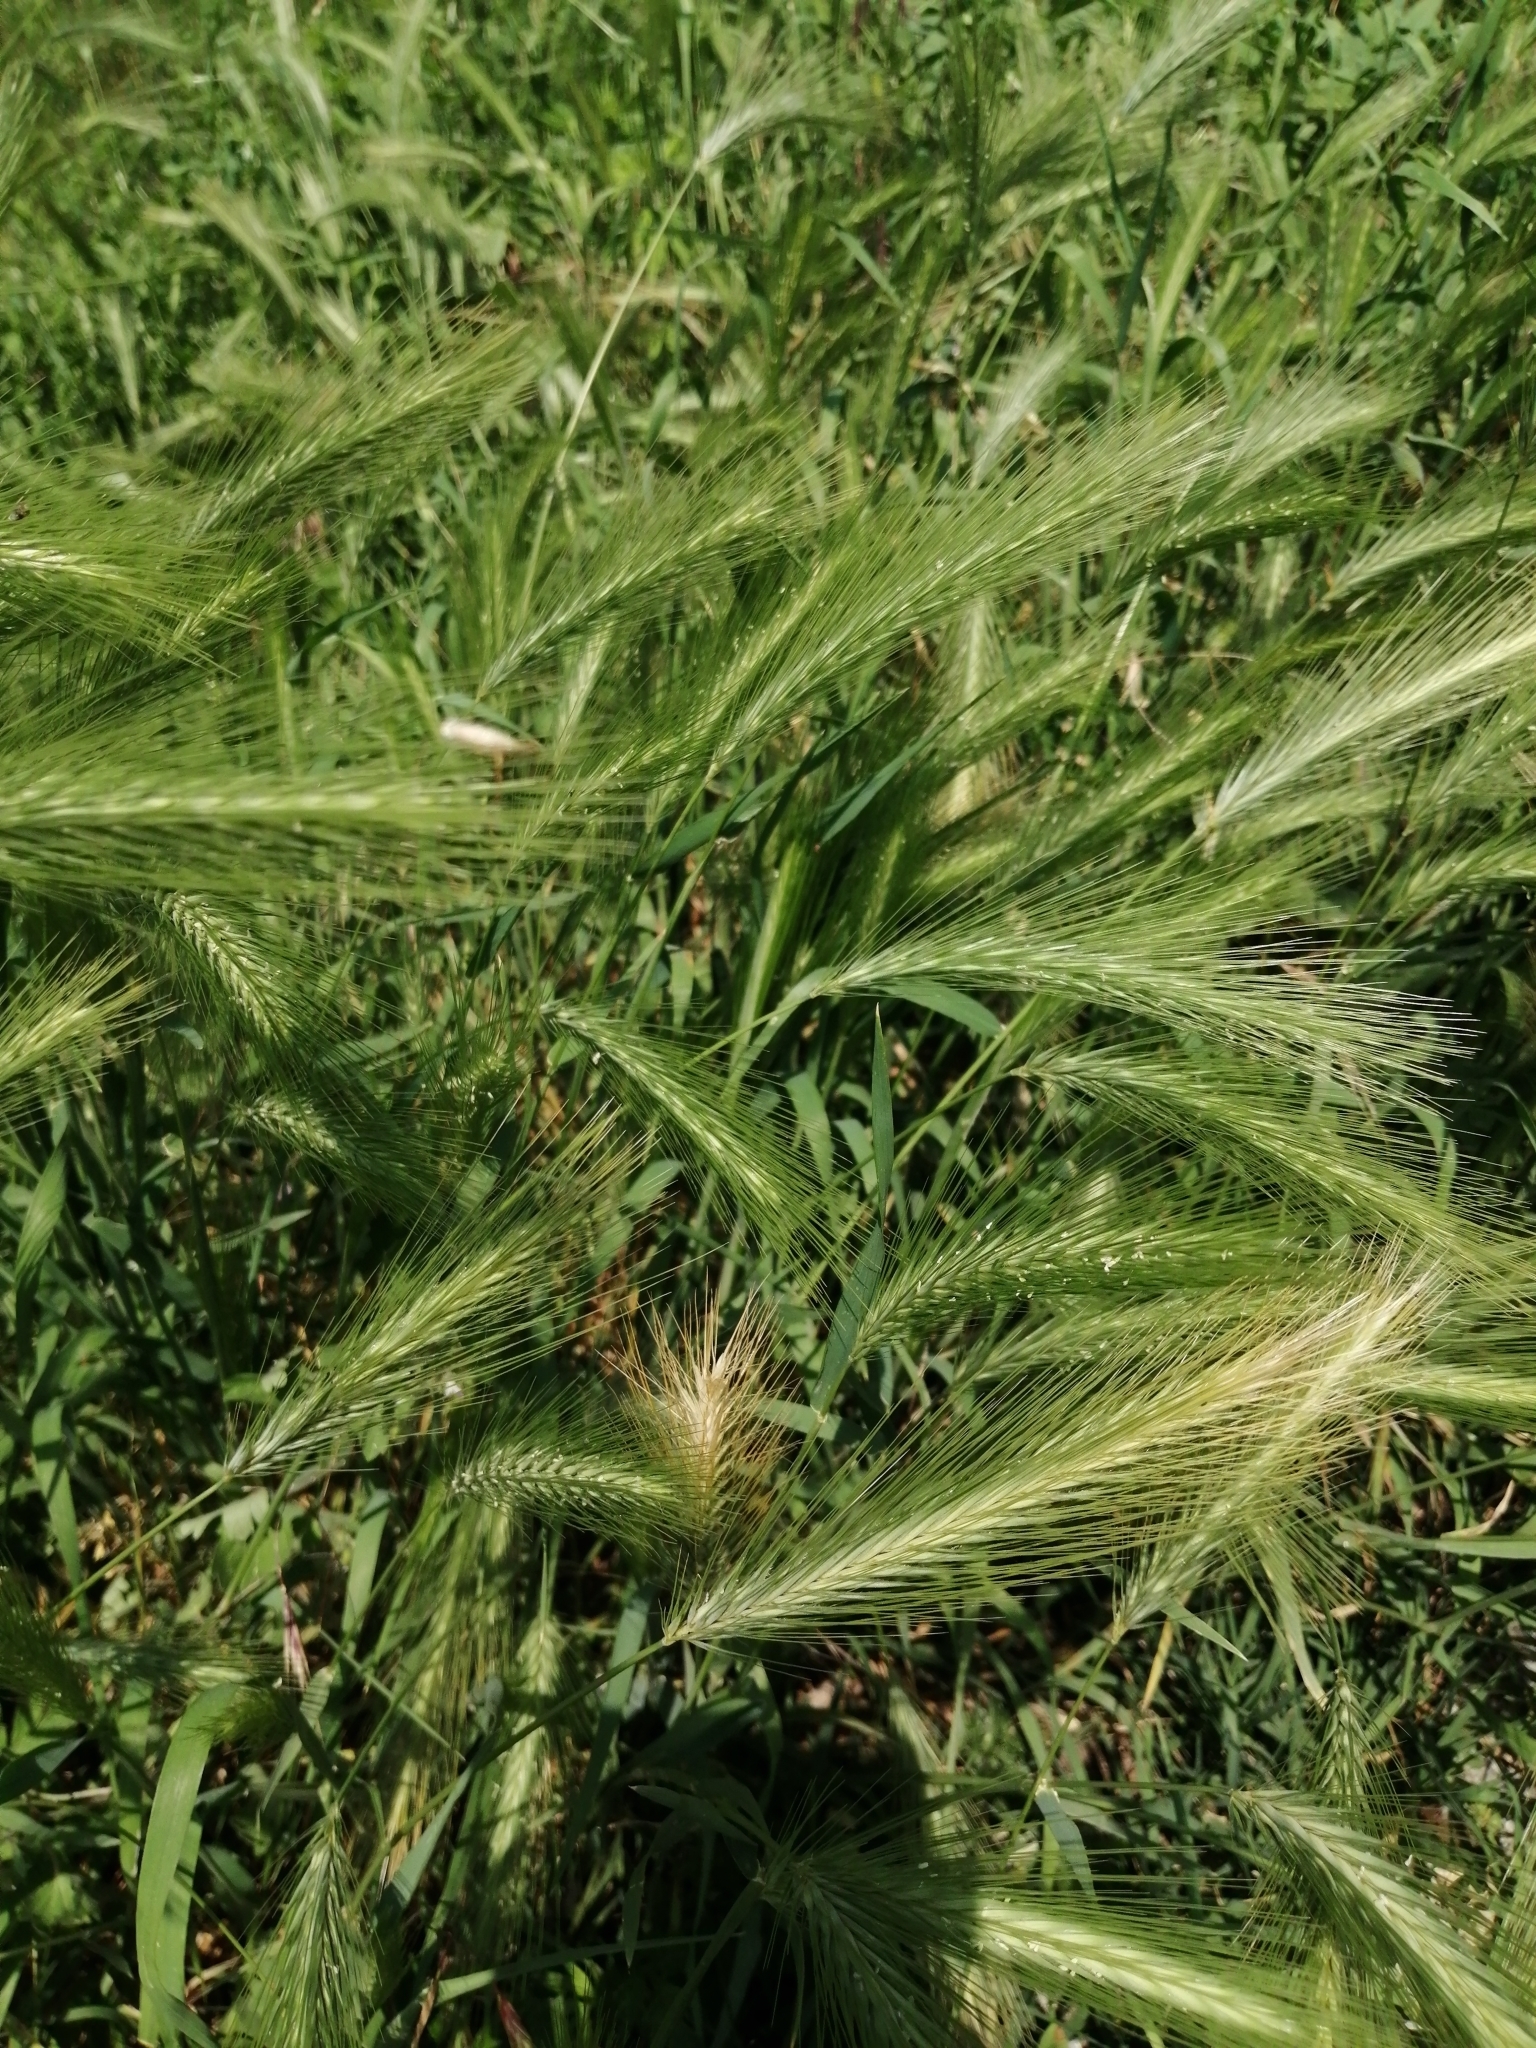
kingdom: Plantae
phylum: Tracheophyta
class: Liliopsida
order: Poales
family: Poaceae
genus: Hordeum
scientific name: Hordeum murinum
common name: Wall barley
